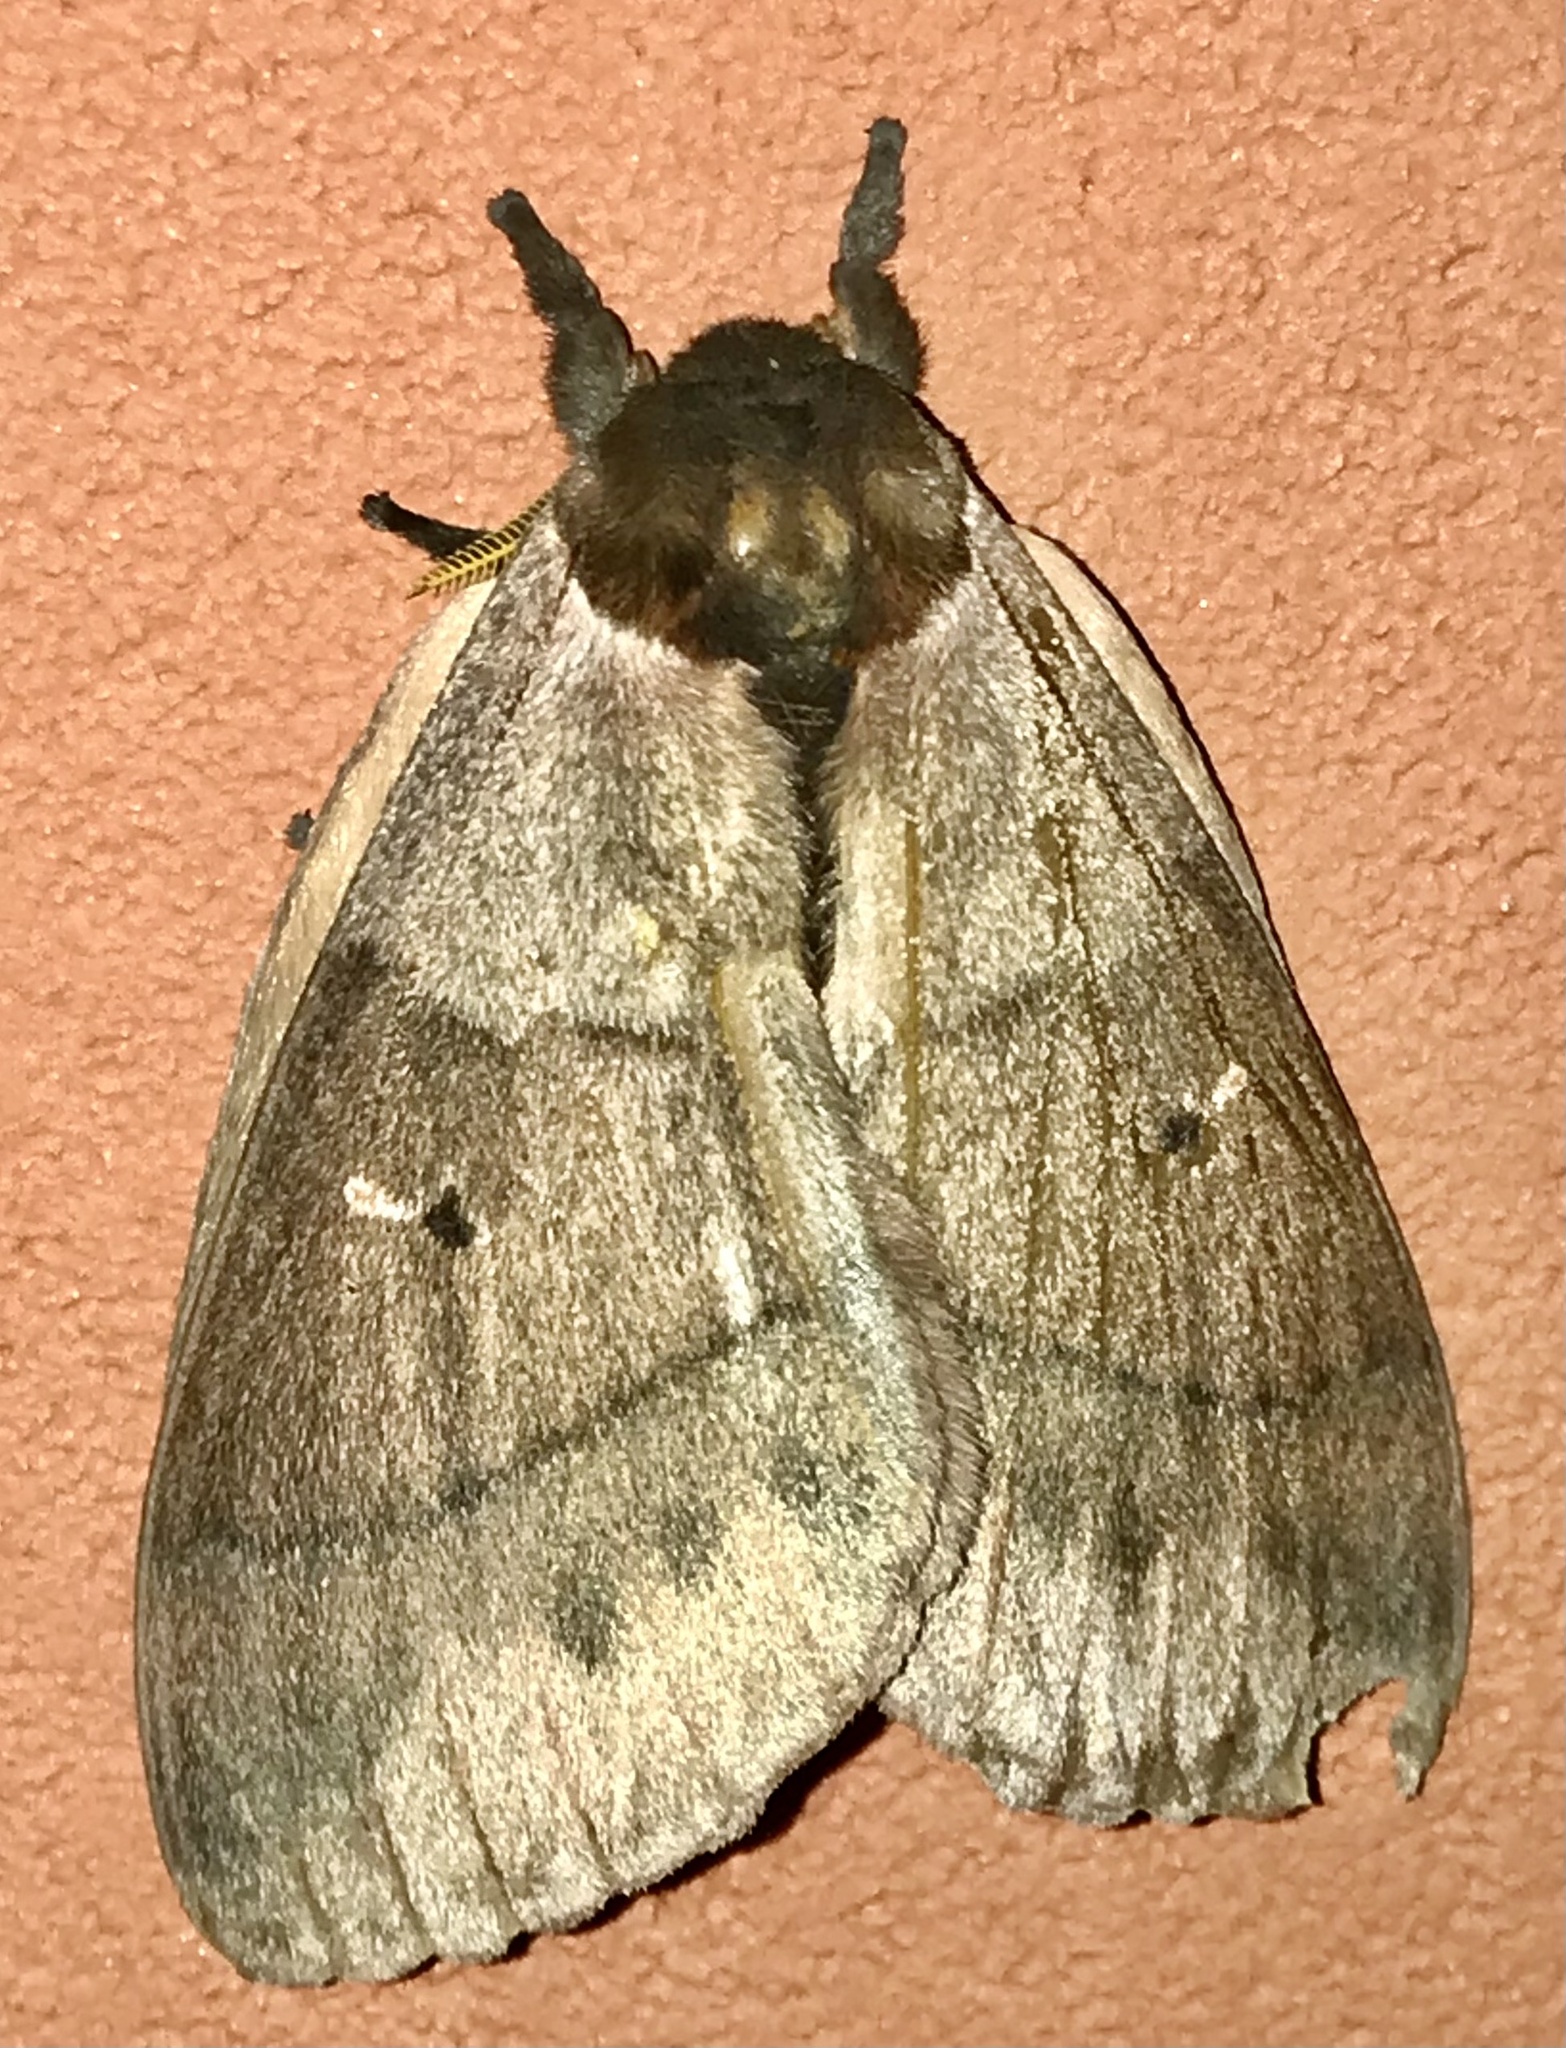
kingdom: Animalia
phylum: Arthropoda
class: Insecta
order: Lepidoptera
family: Saturniidae
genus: Dirphia
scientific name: Dirphia moderata
